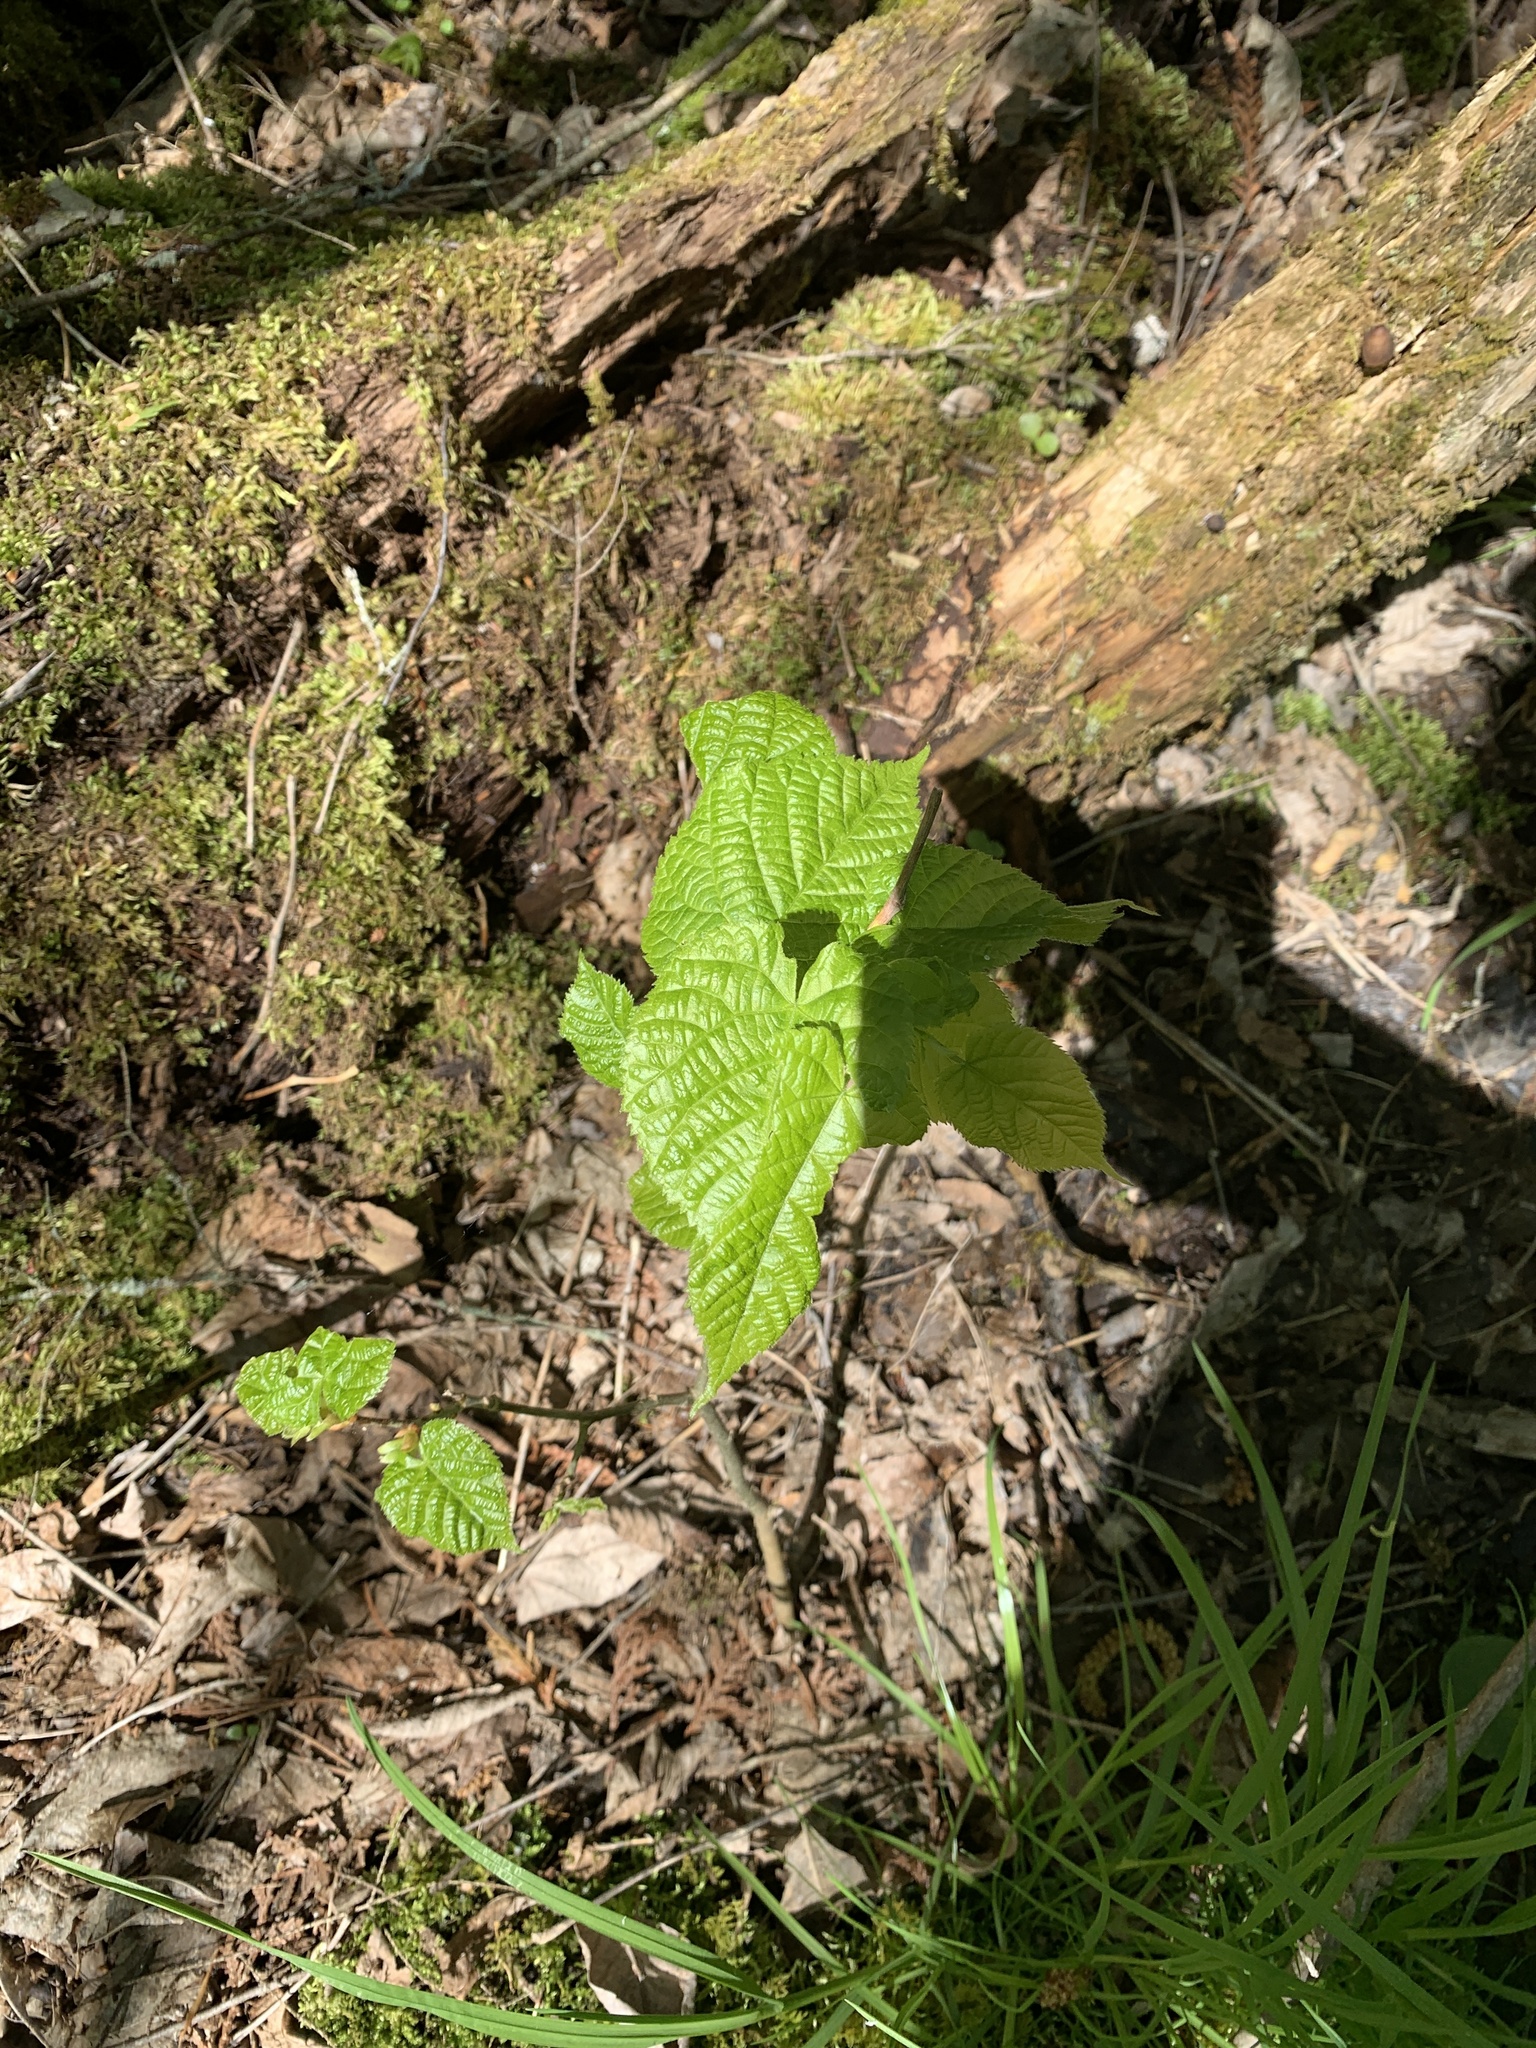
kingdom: Plantae
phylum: Tracheophyta
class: Magnoliopsida
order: Malvales
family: Malvaceae
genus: Tilia
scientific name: Tilia americana
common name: Basswood
